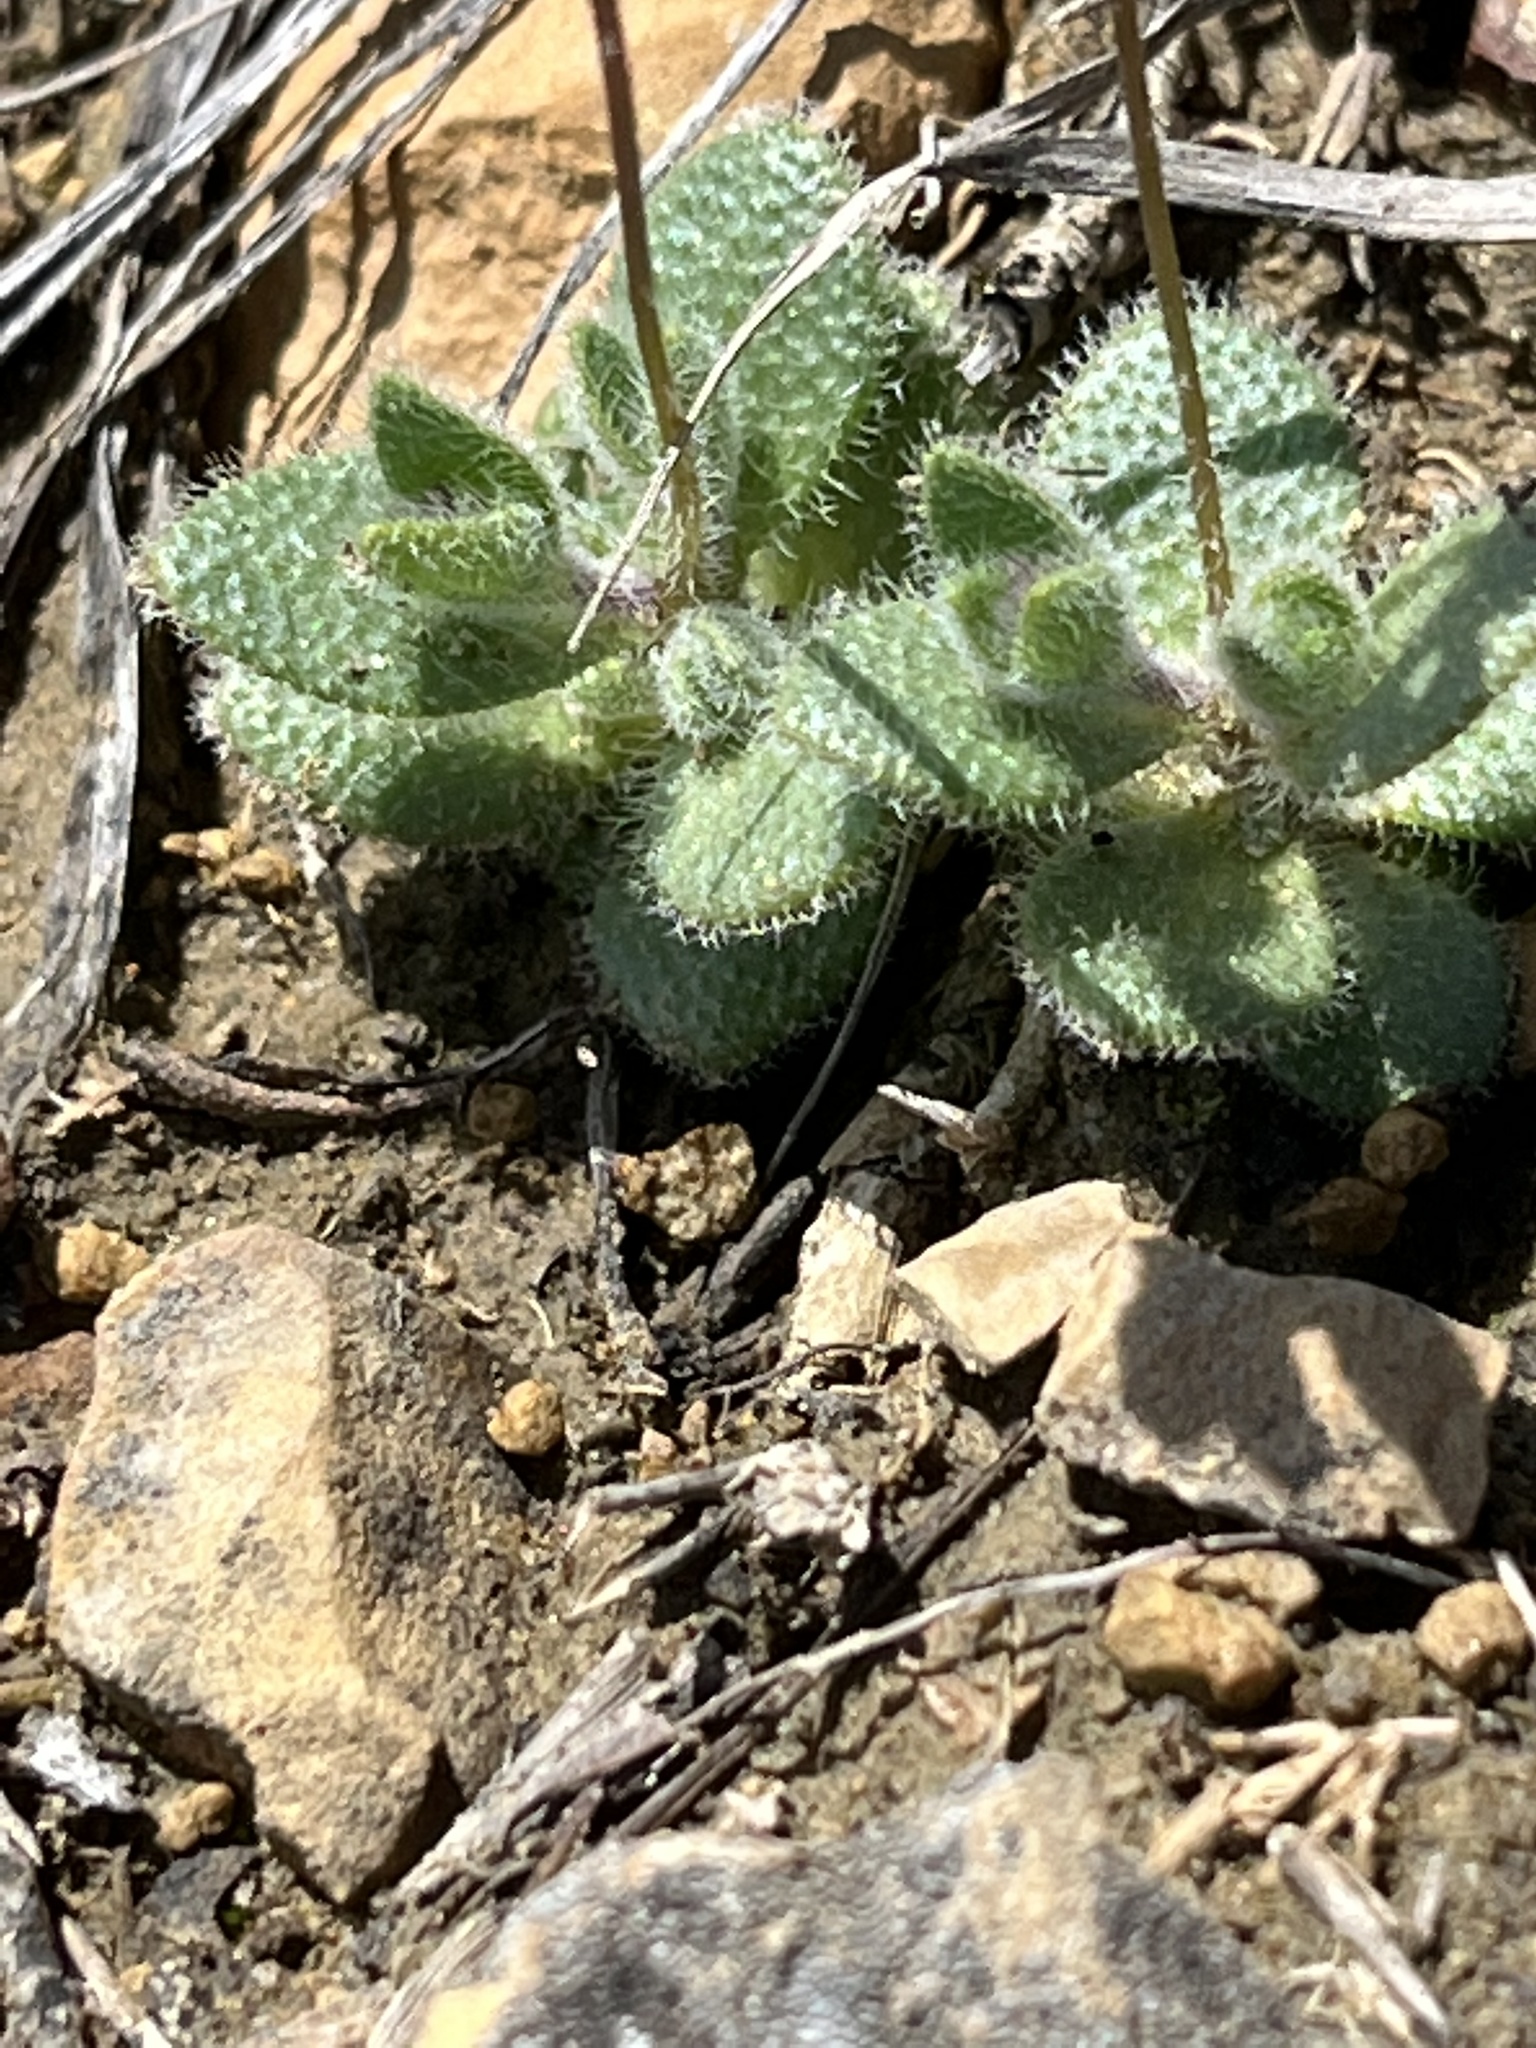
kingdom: Plantae
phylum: Tracheophyta
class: Magnoliopsida
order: Brassicales
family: Brassicaceae
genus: Tomostima
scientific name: Tomostima reptans
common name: Carolina draba
